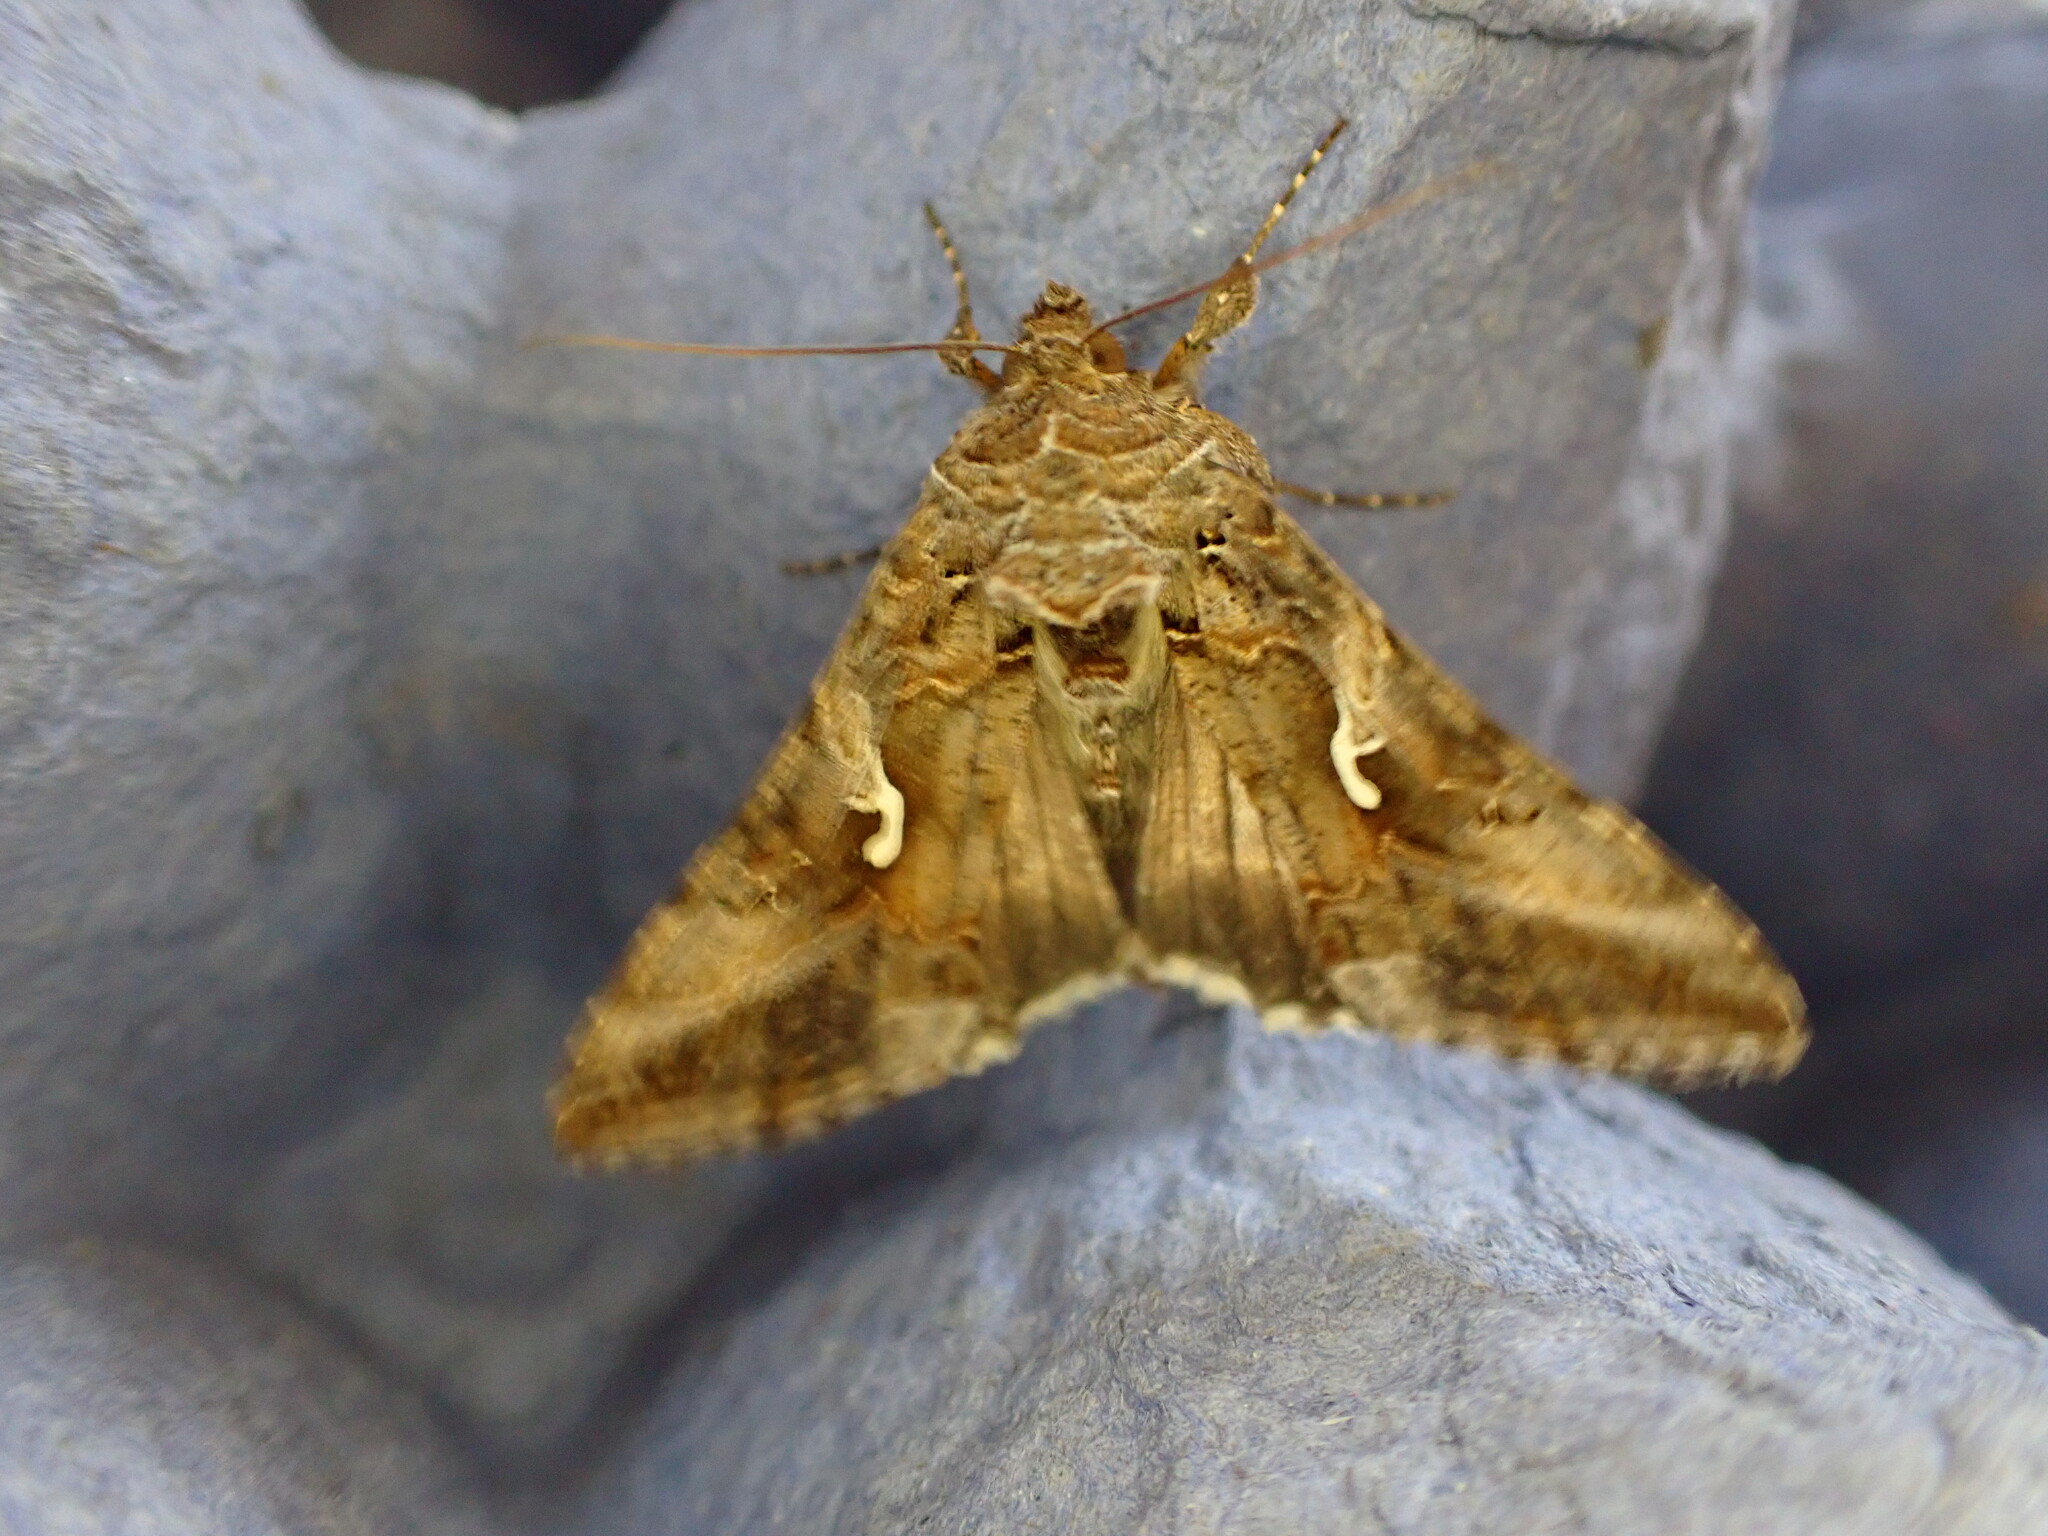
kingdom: Animalia
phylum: Arthropoda
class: Insecta
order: Lepidoptera
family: Noctuidae
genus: Autographa
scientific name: Autographa gamma
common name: Silver y
